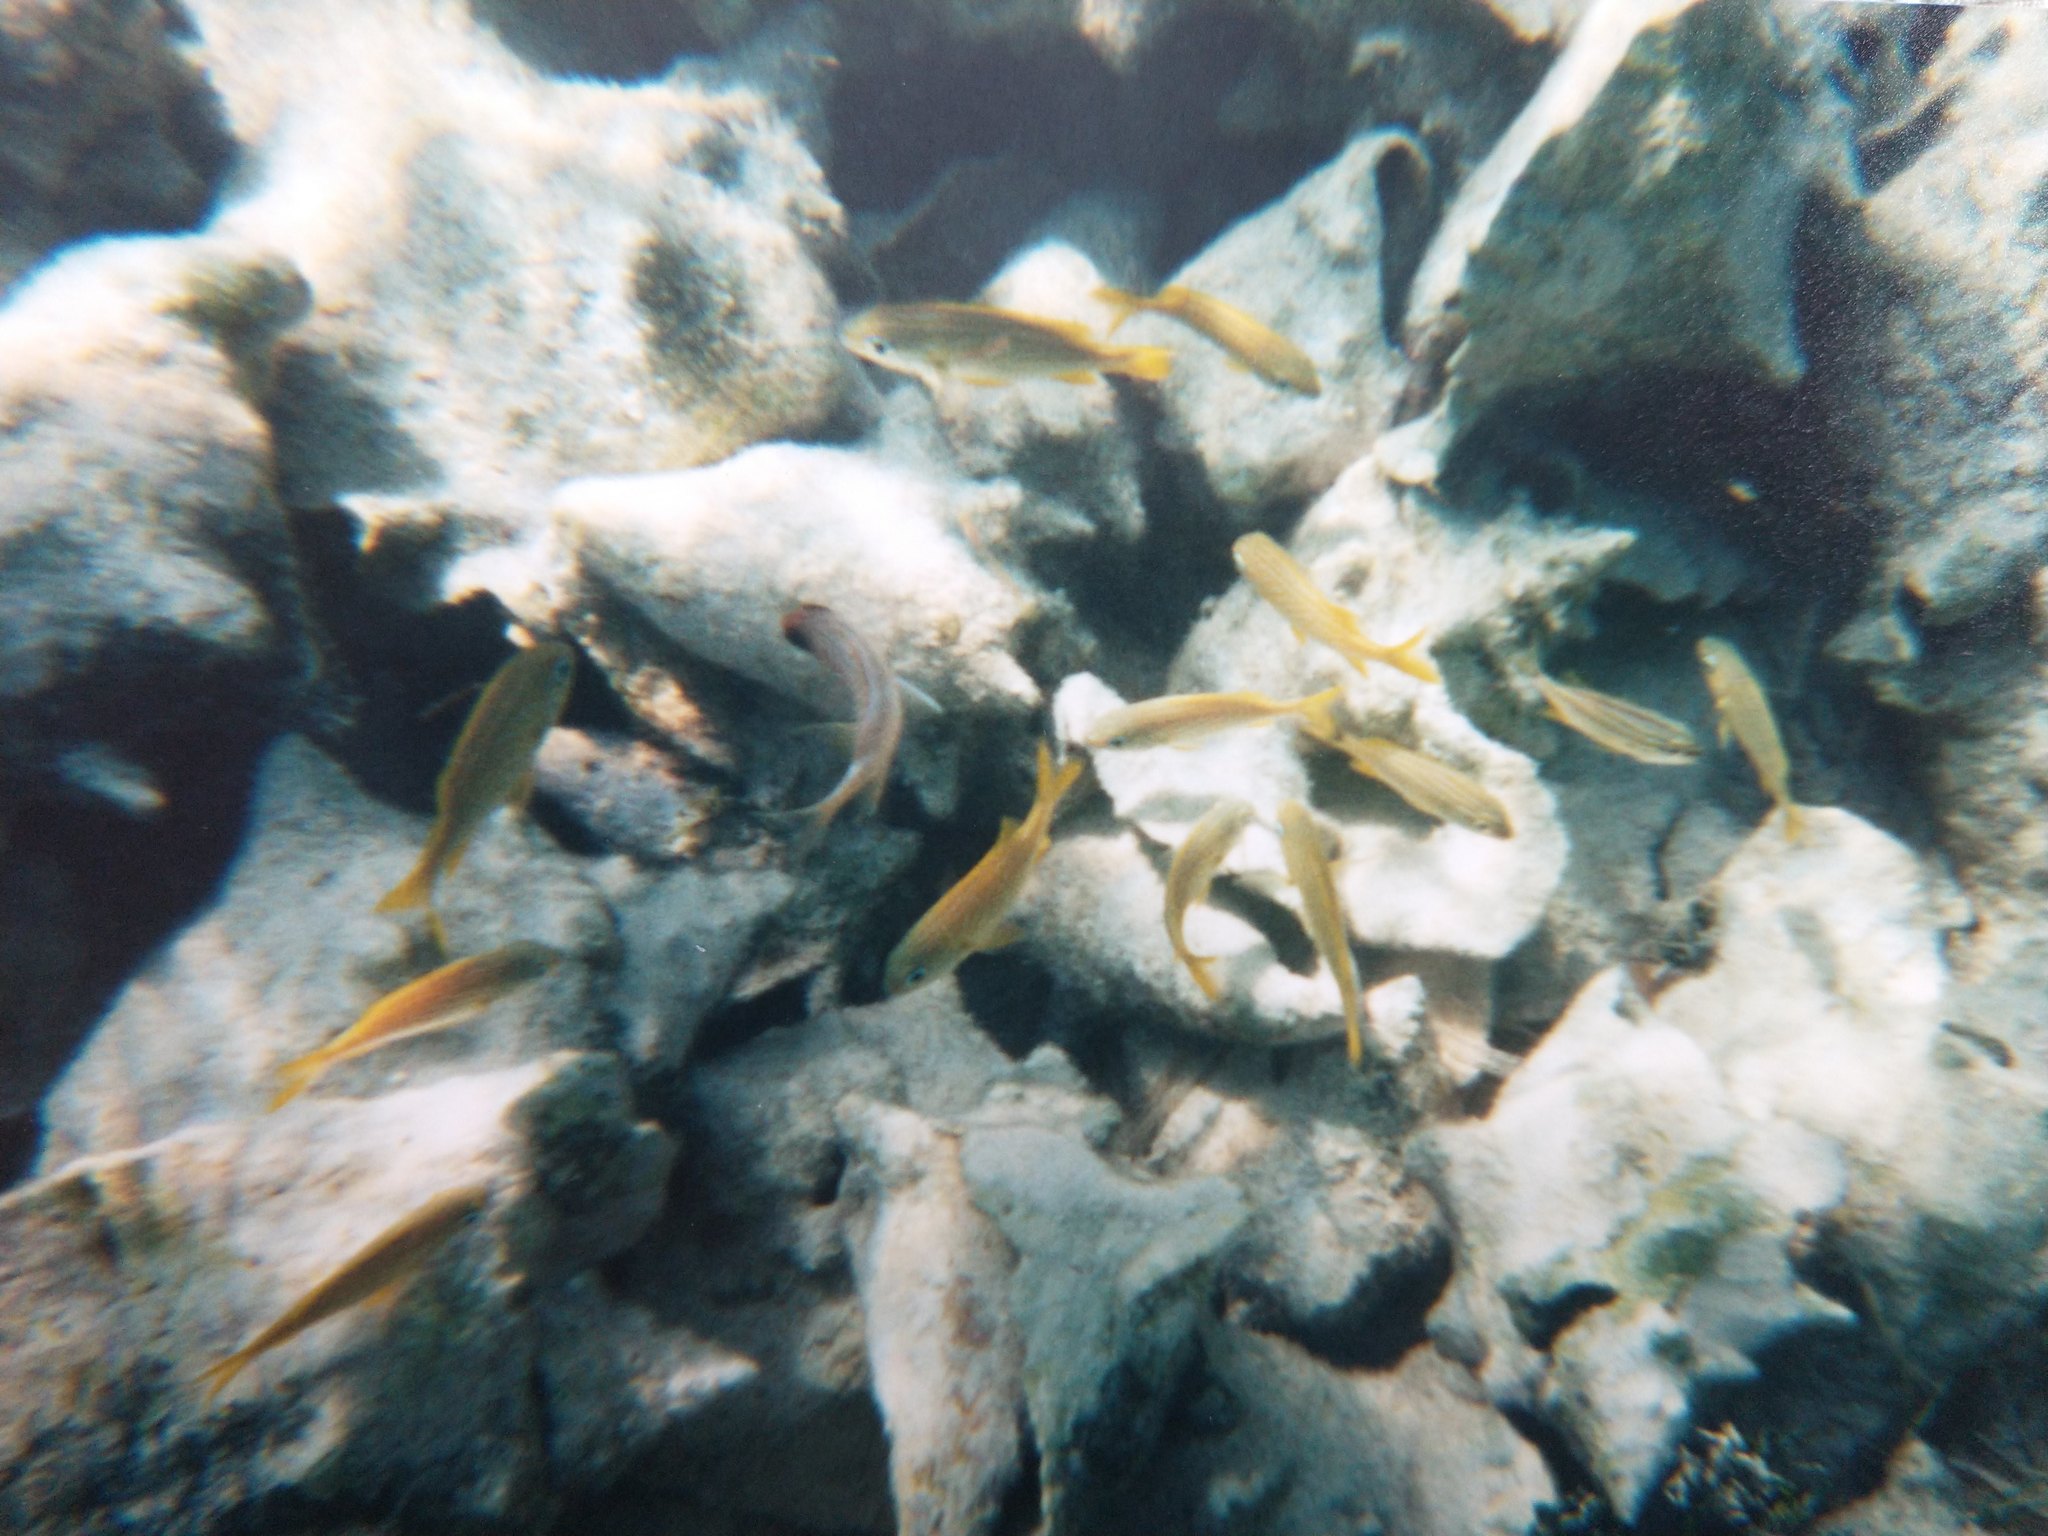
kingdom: Animalia
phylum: Chordata
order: Beryciformes
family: Holocentridae
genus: Holocentrus
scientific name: Holocentrus adscensionis
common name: Squirrelfish
